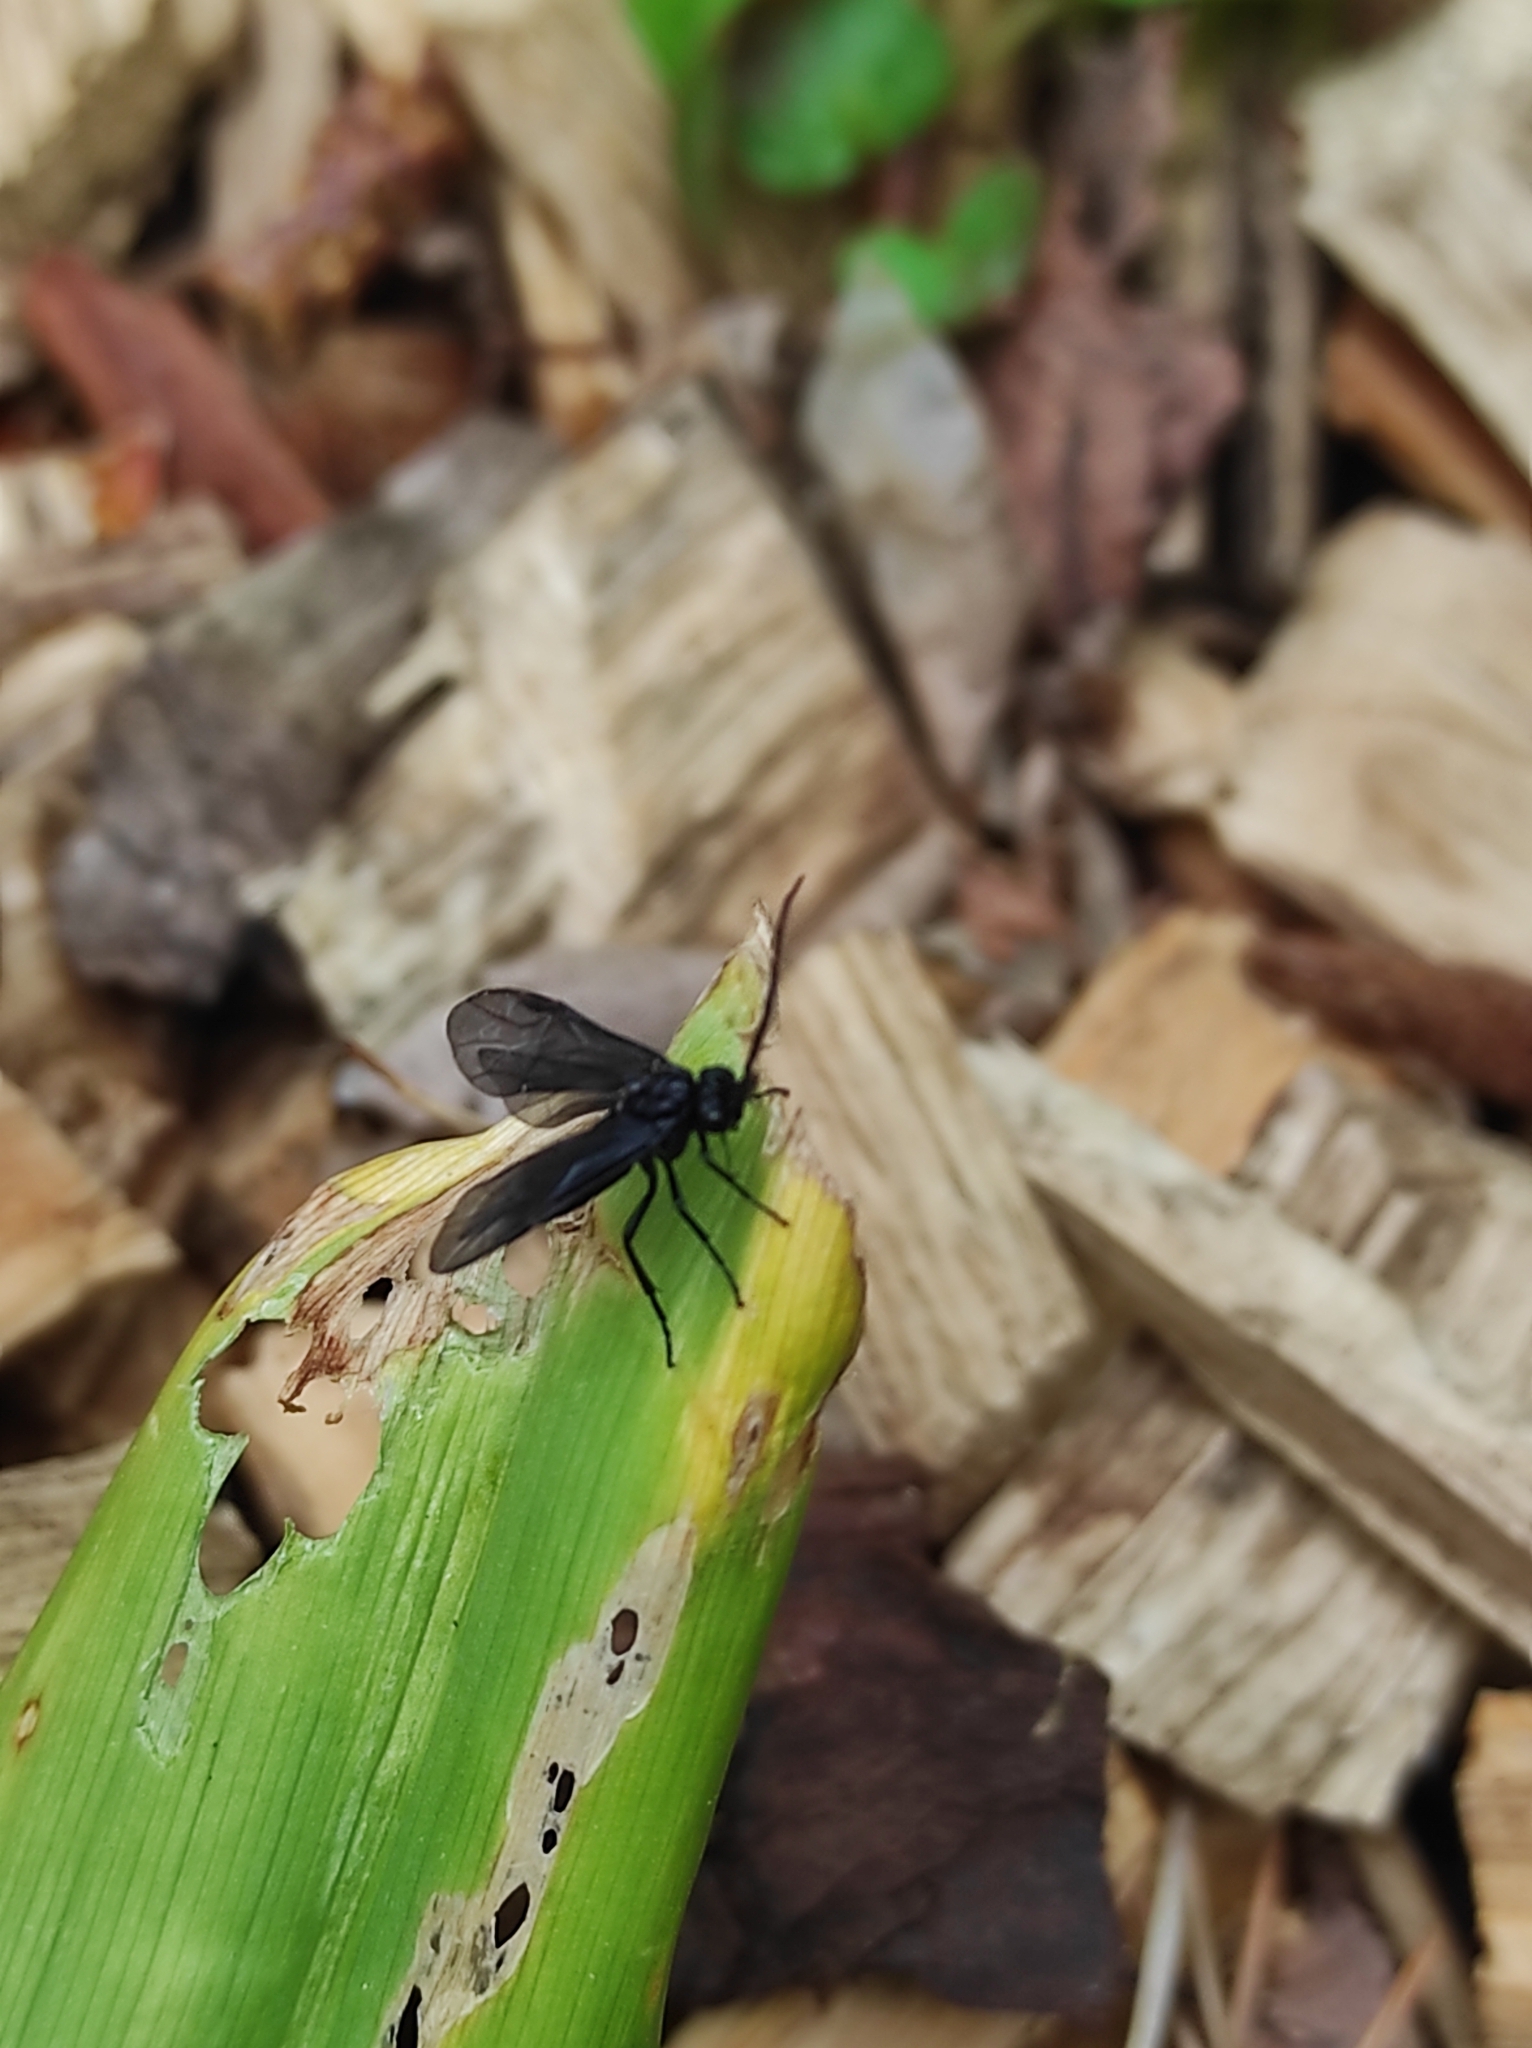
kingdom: Animalia
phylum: Arthropoda
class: Insecta
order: Hymenoptera
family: Tenthredinidae
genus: Phymatocera
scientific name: Phymatocera aterrima
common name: Solomon's-seal sawfly
